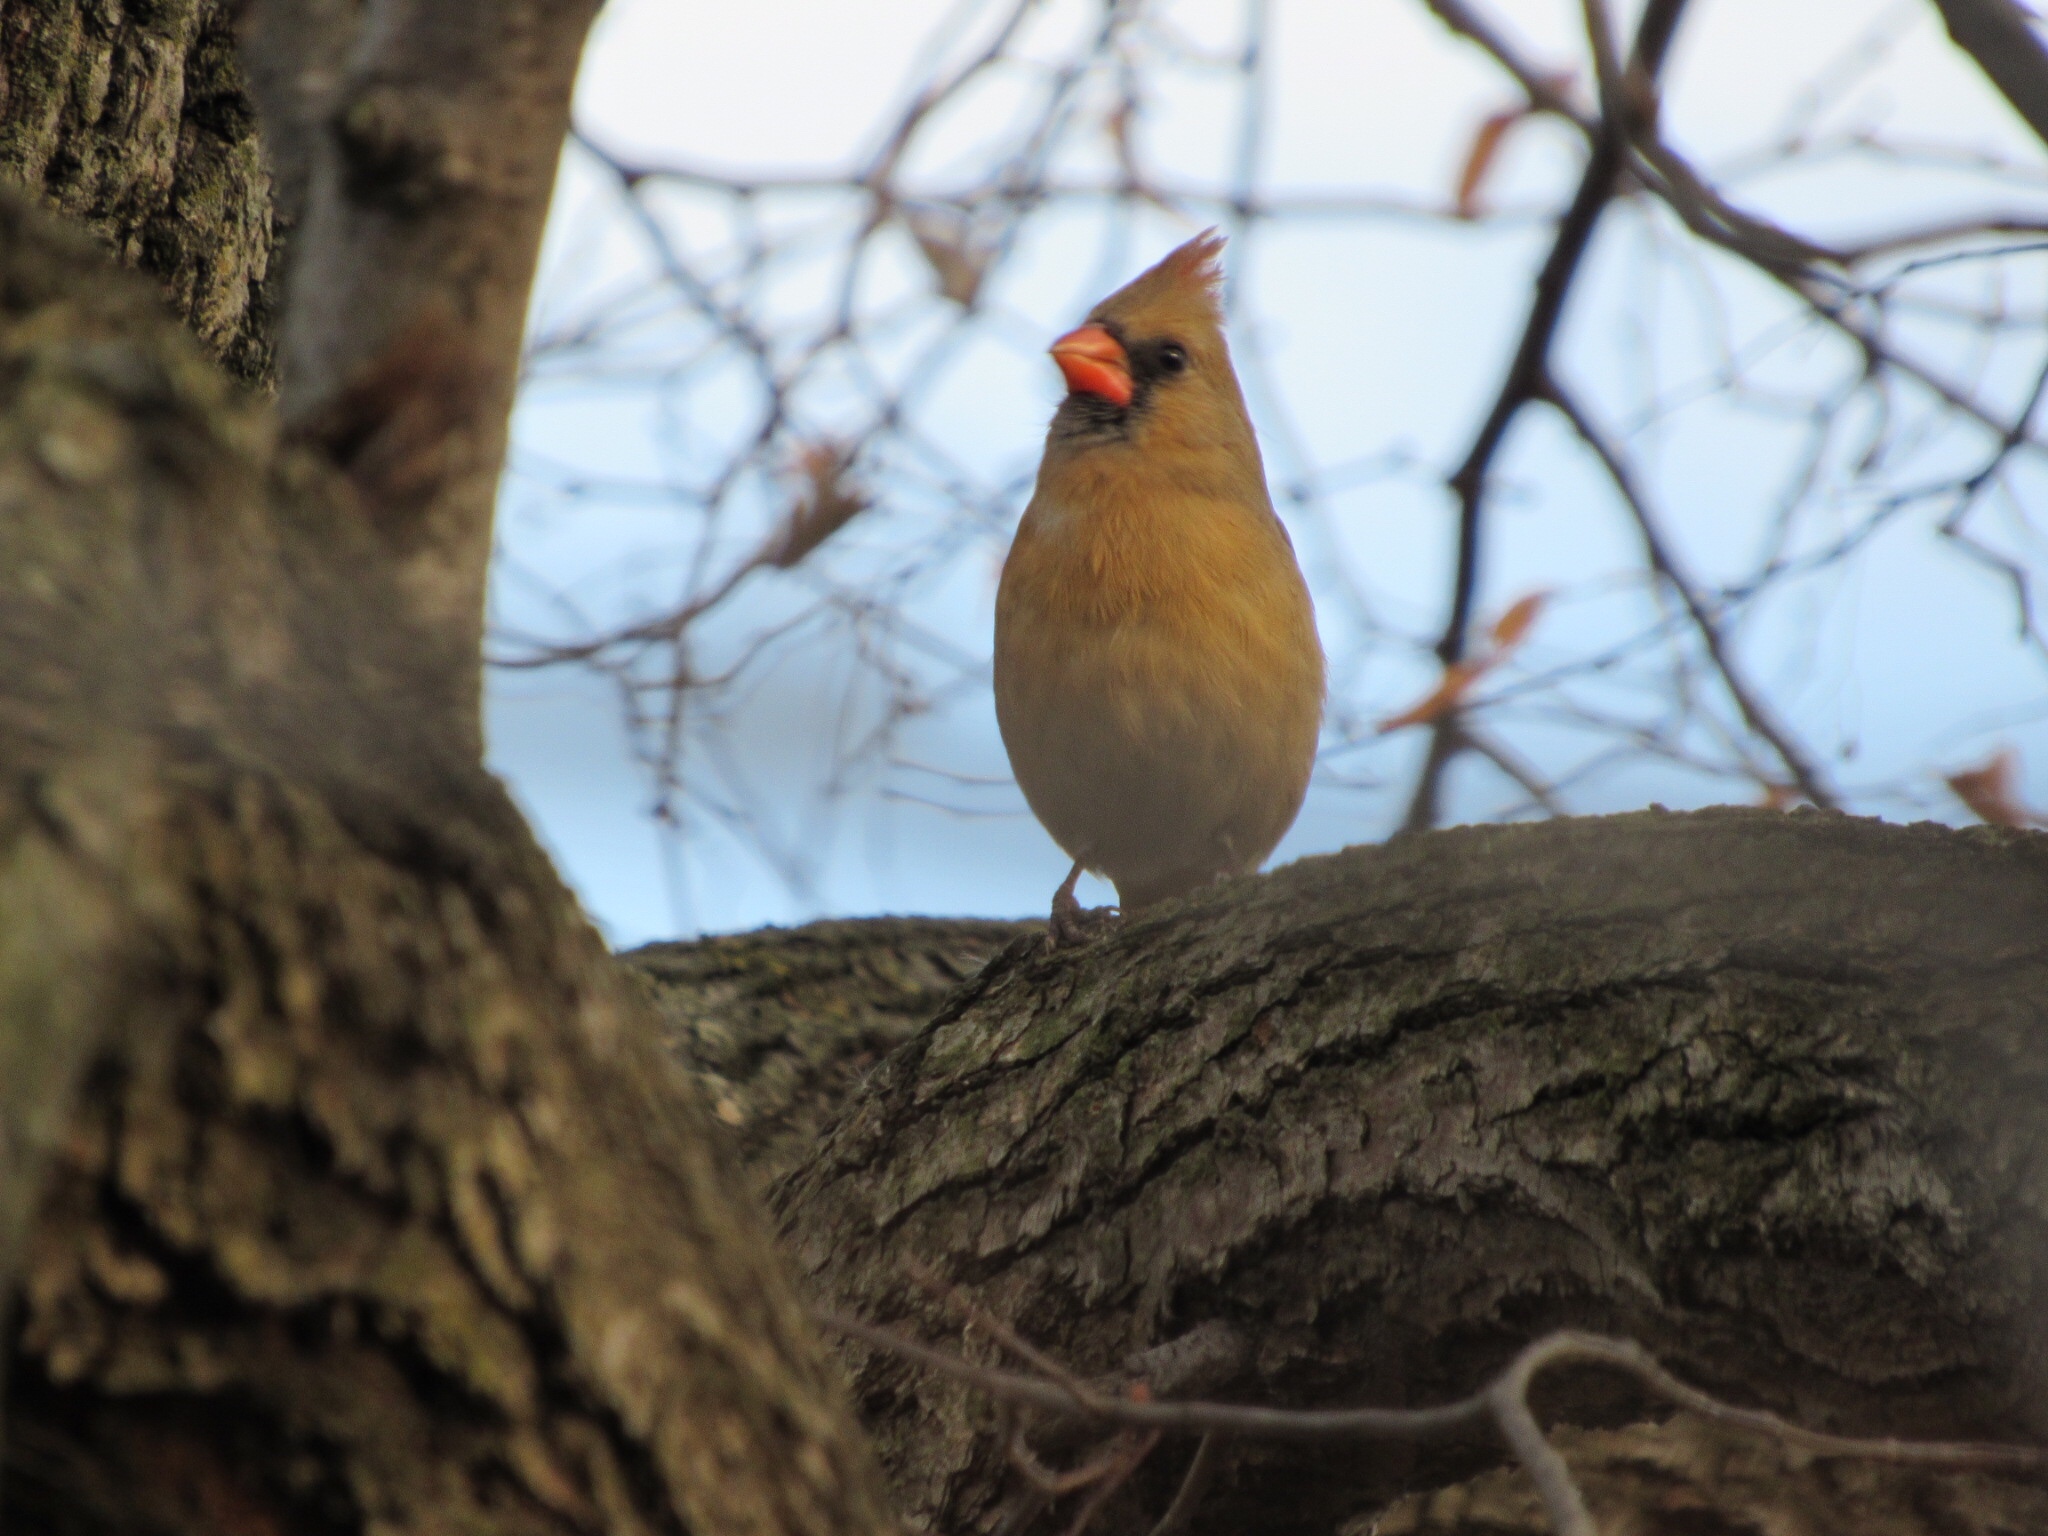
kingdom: Animalia
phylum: Chordata
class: Aves
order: Passeriformes
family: Cardinalidae
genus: Cardinalis
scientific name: Cardinalis cardinalis
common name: Northern cardinal
